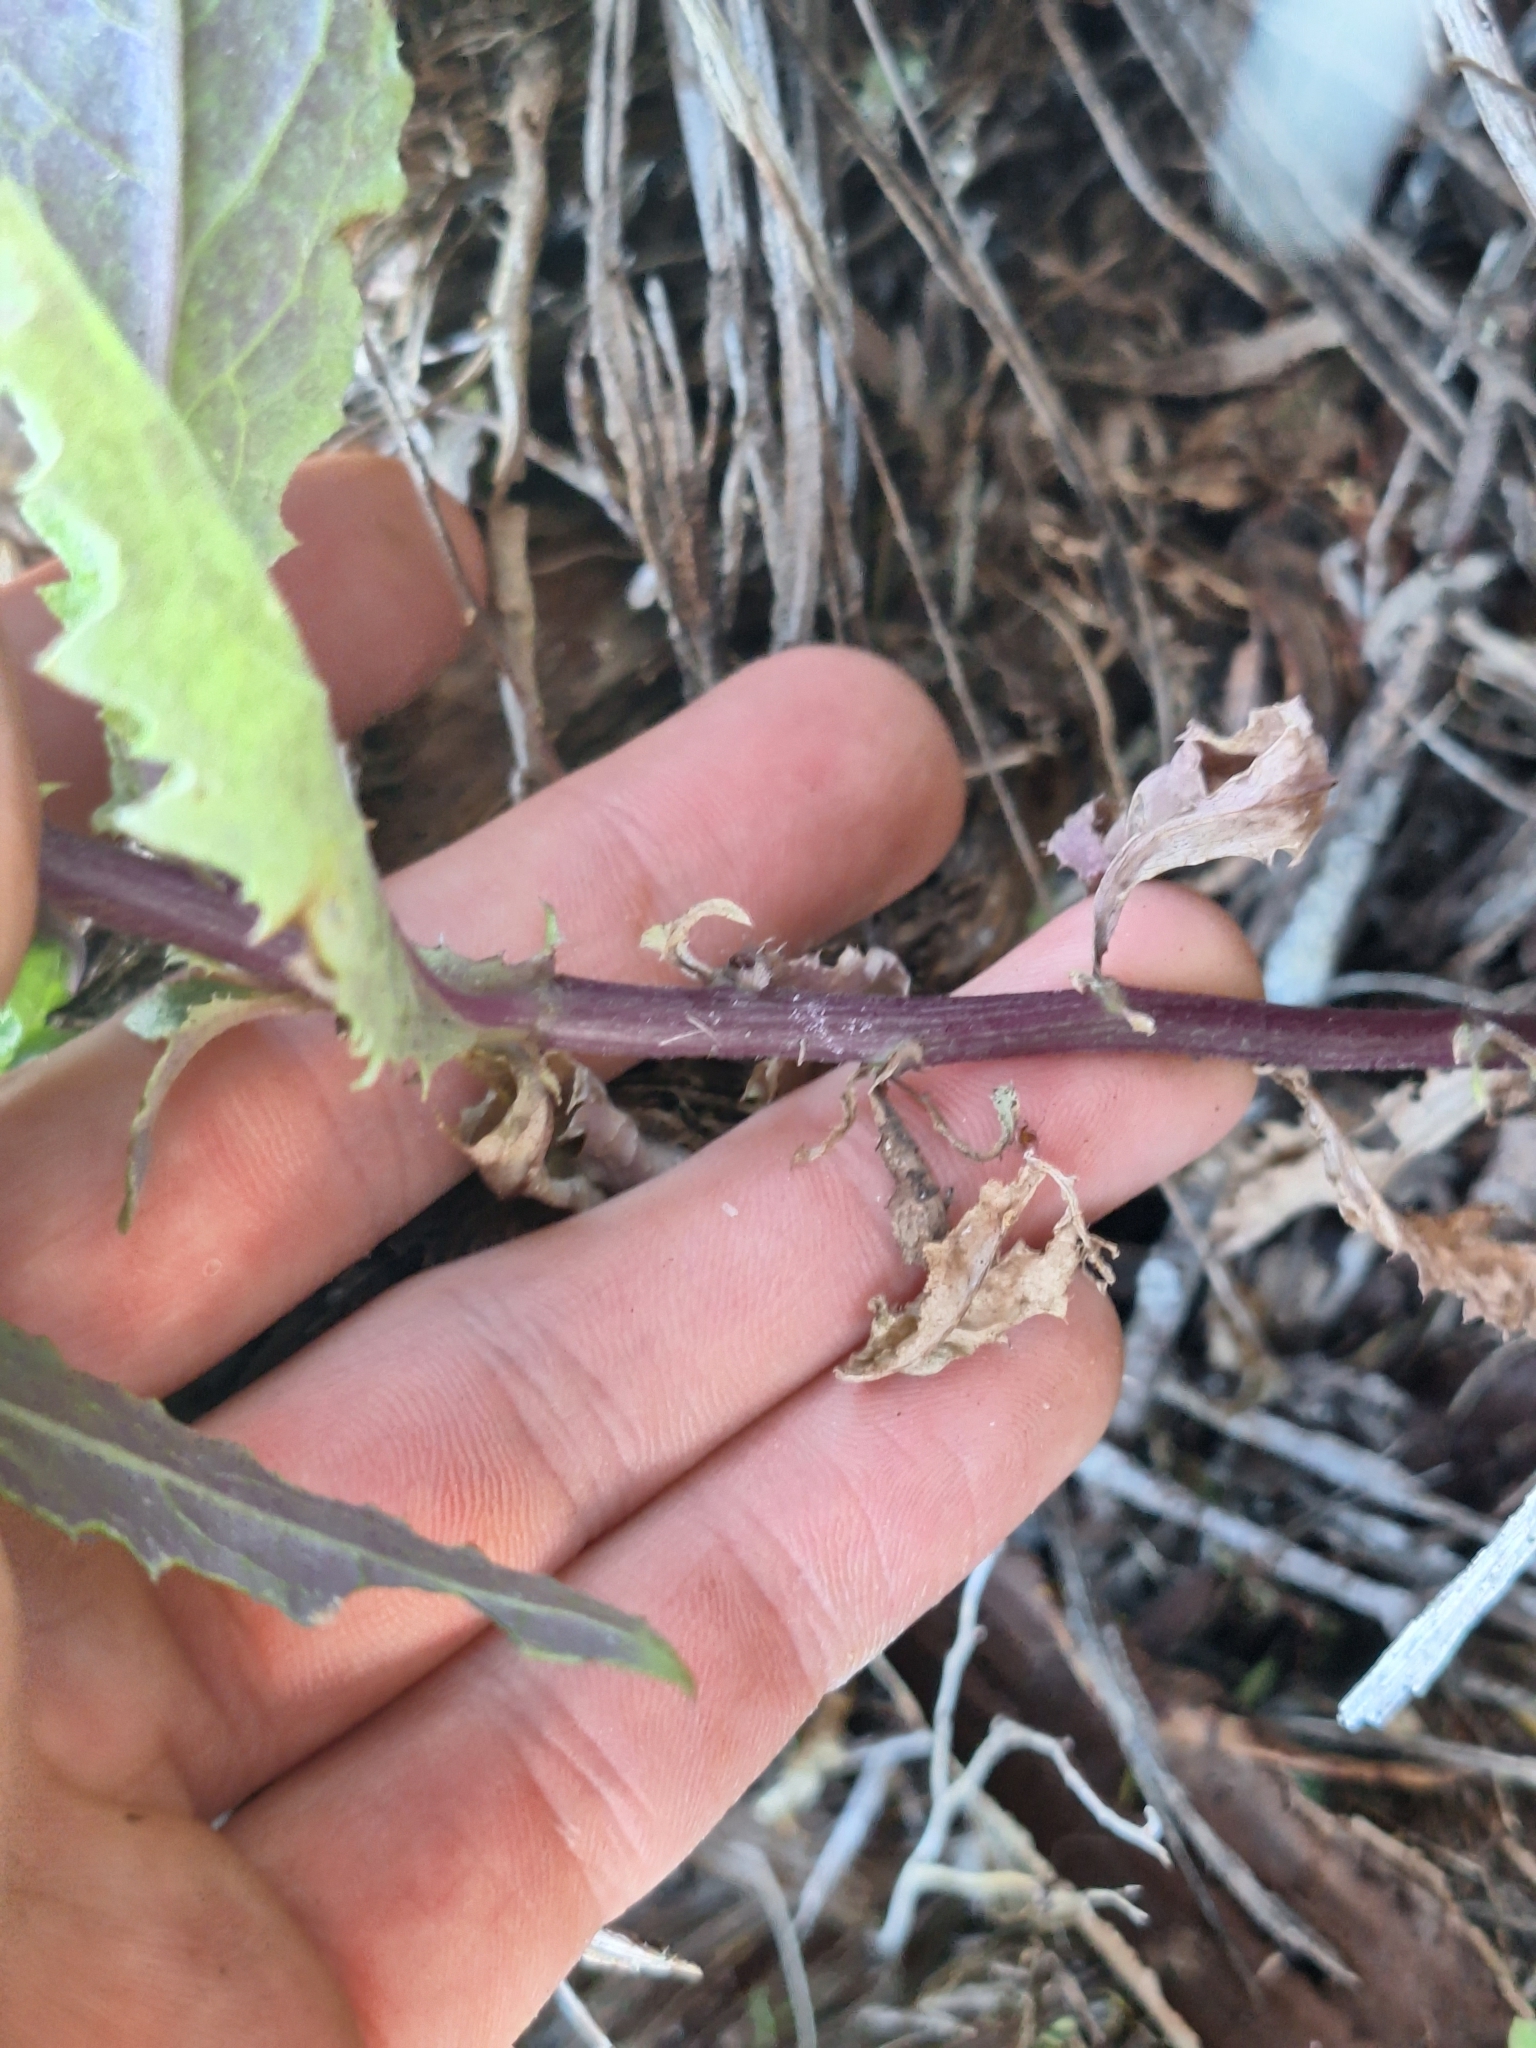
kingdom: Plantae
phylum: Tracheophyta
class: Magnoliopsida
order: Asterales
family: Asteraceae
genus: Senecio
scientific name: Senecio minimus
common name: Toothed fireweed
